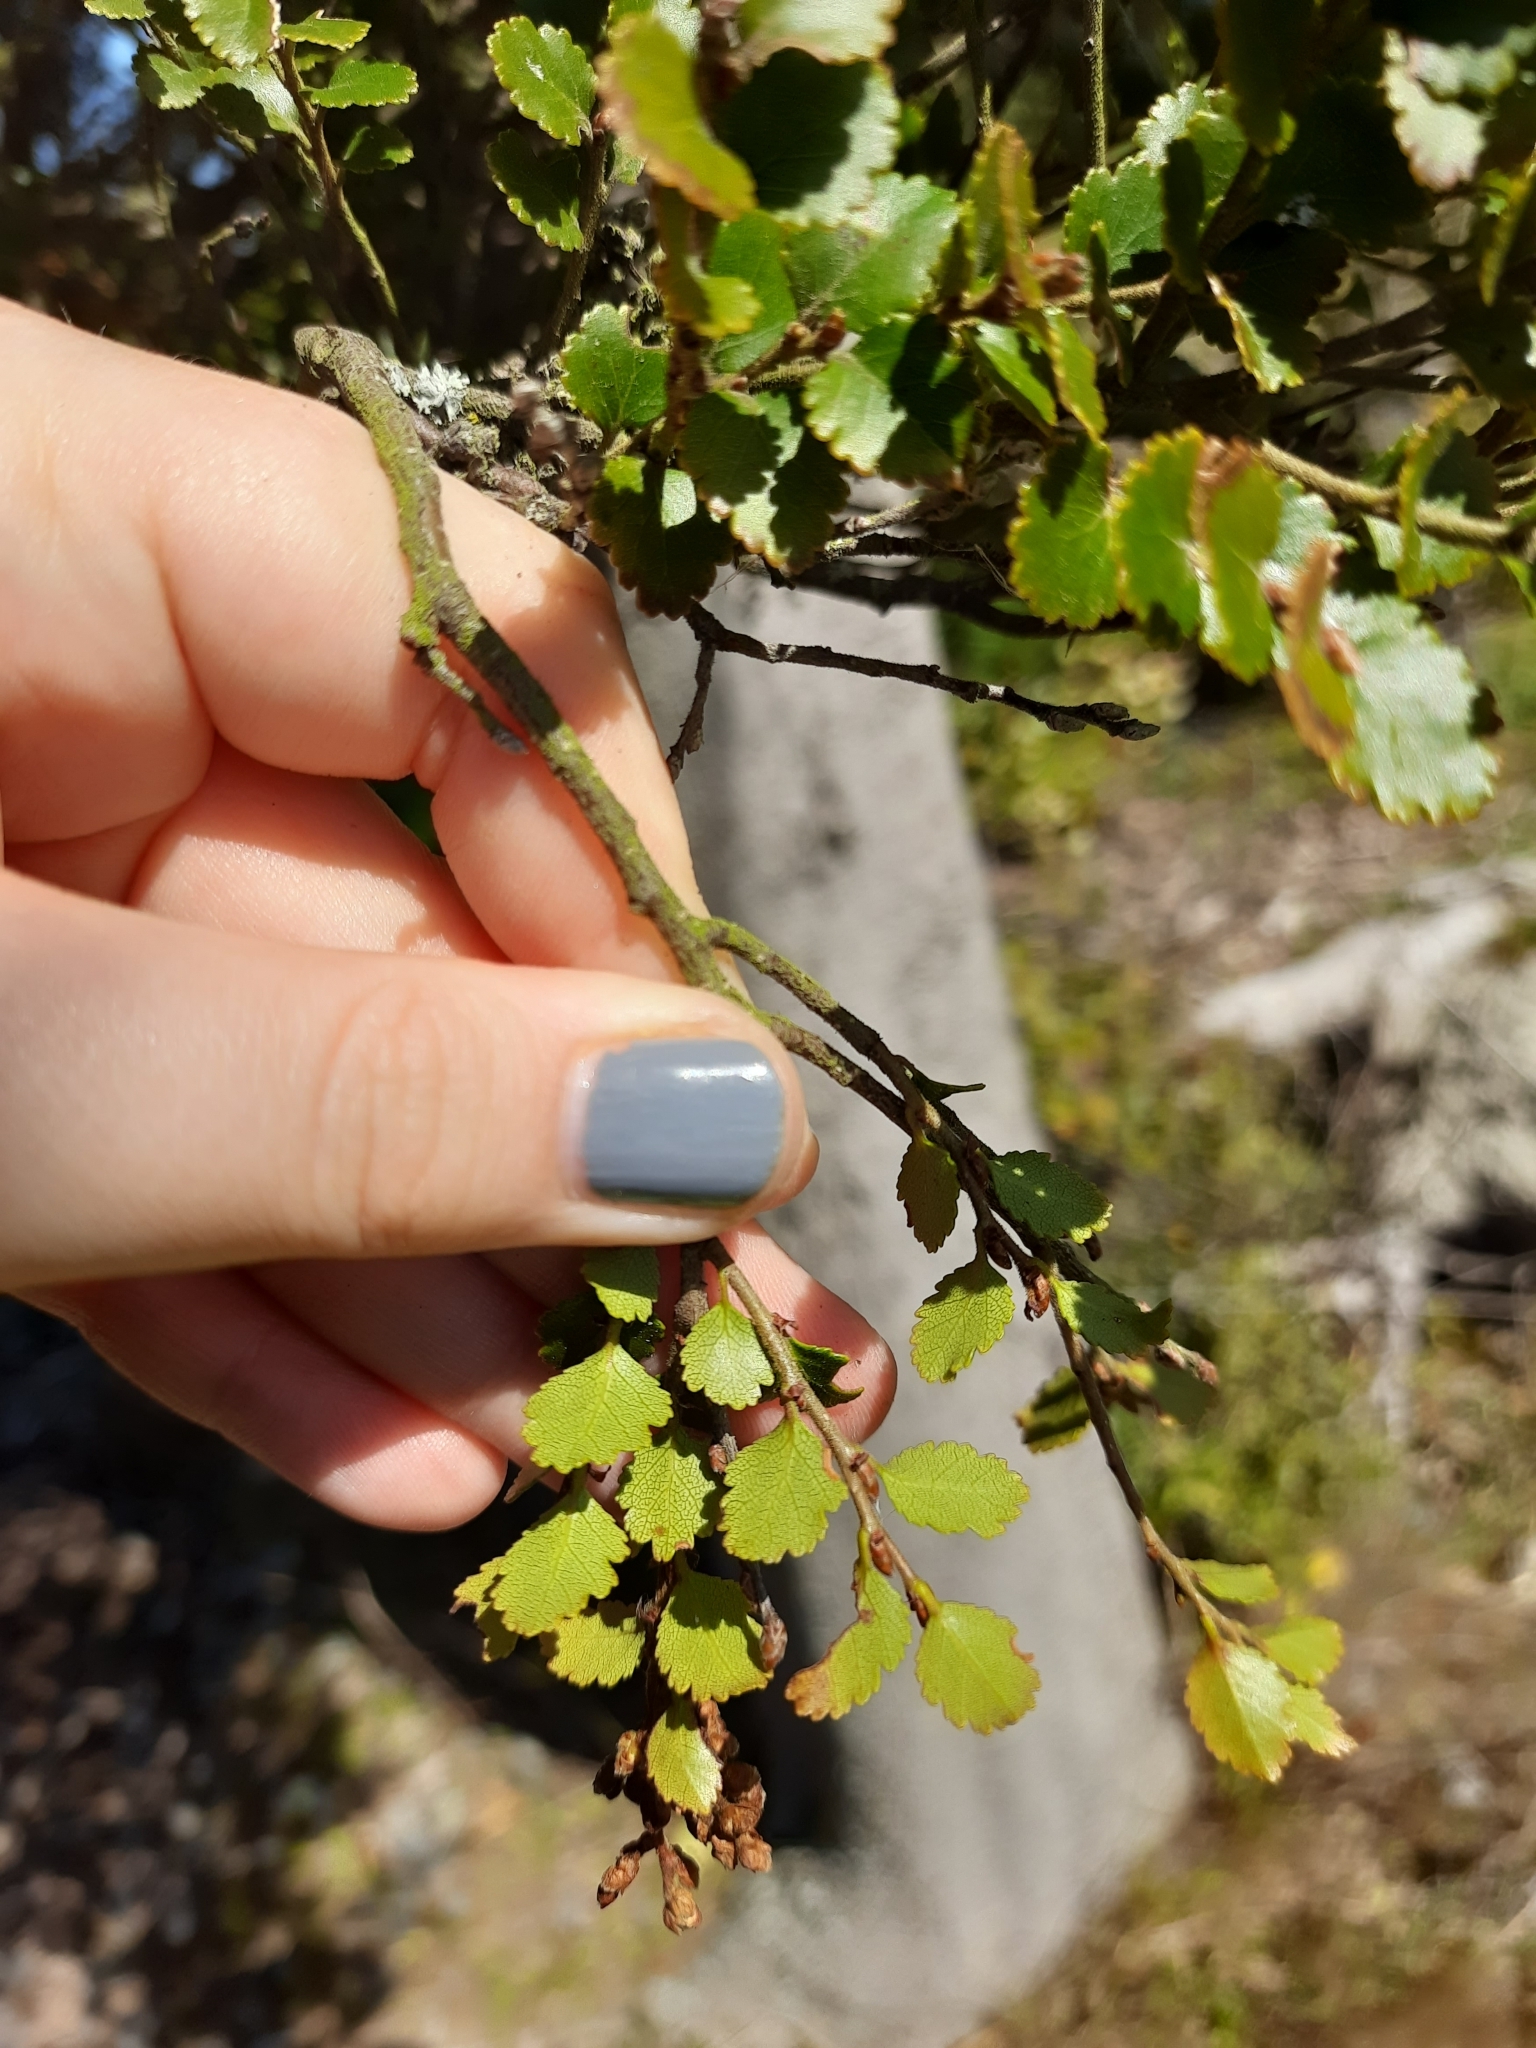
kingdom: Plantae
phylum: Tracheophyta
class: Magnoliopsida
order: Fagales
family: Nothofagaceae
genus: Nothofagus
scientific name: Nothofagus menziesii
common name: Silver beech
